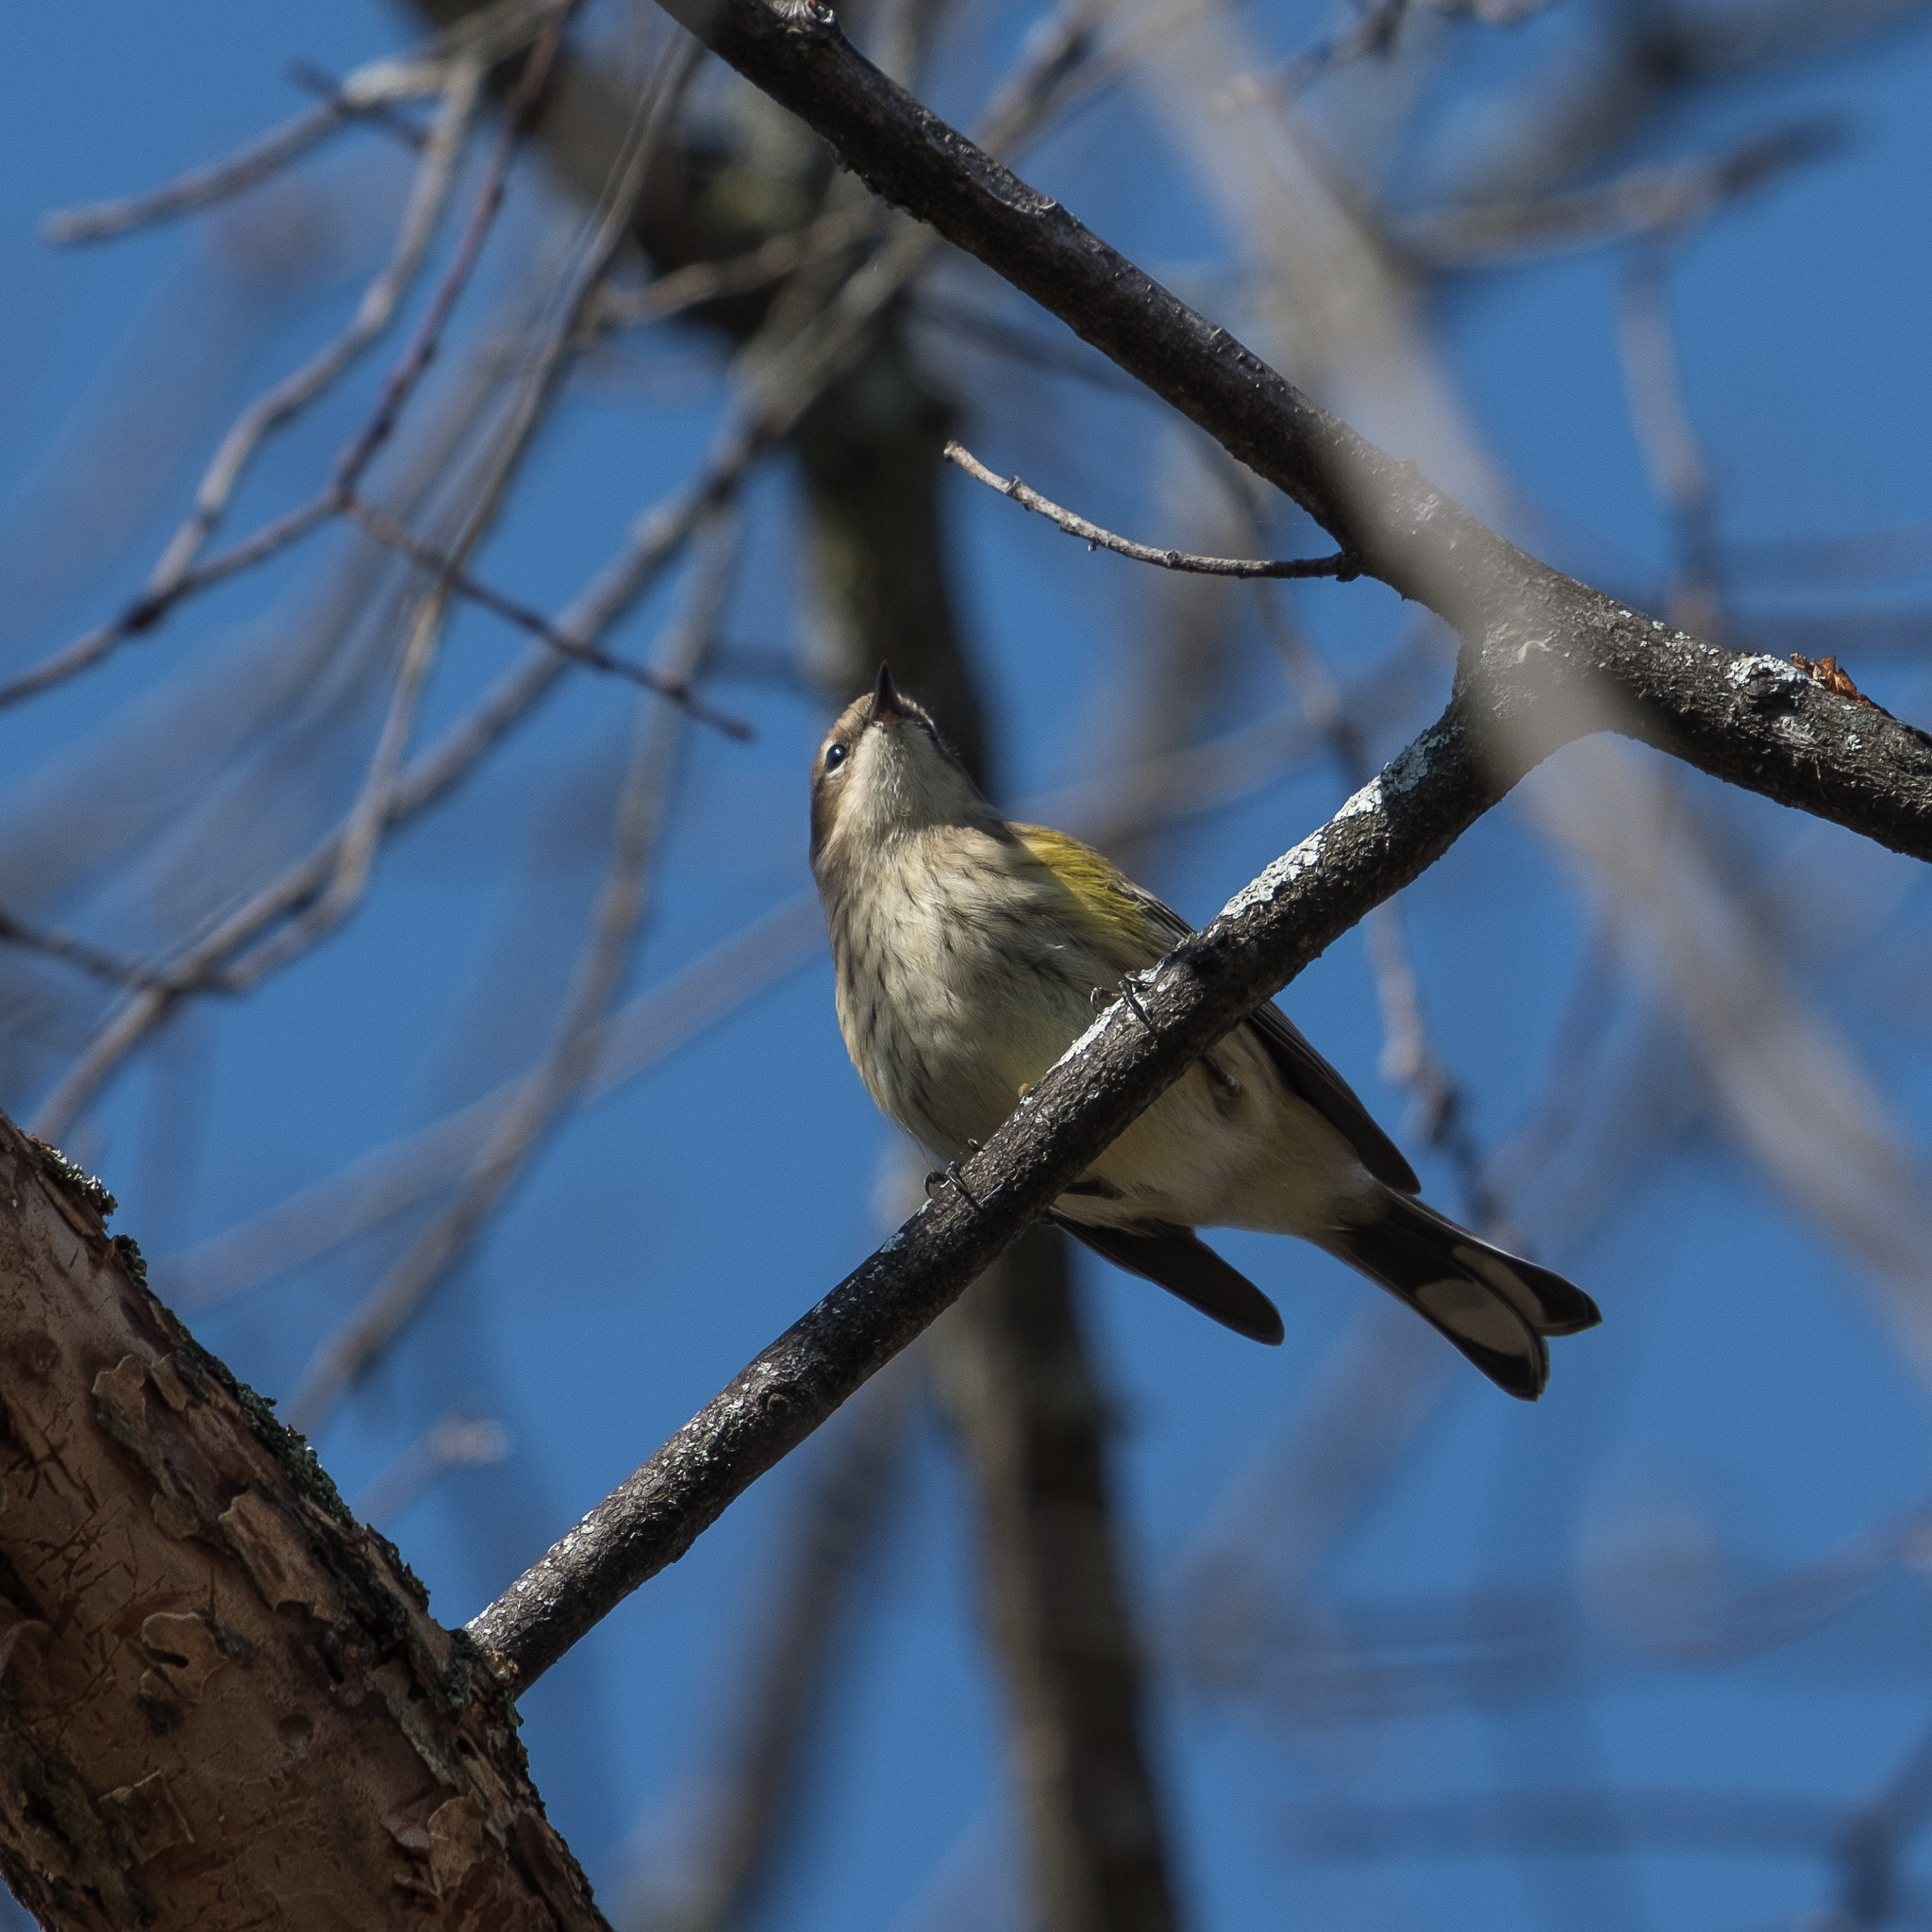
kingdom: Animalia
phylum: Chordata
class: Aves
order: Passeriformes
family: Parulidae
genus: Setophaga
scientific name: Setophaga coronata
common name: Myrtle warbler
